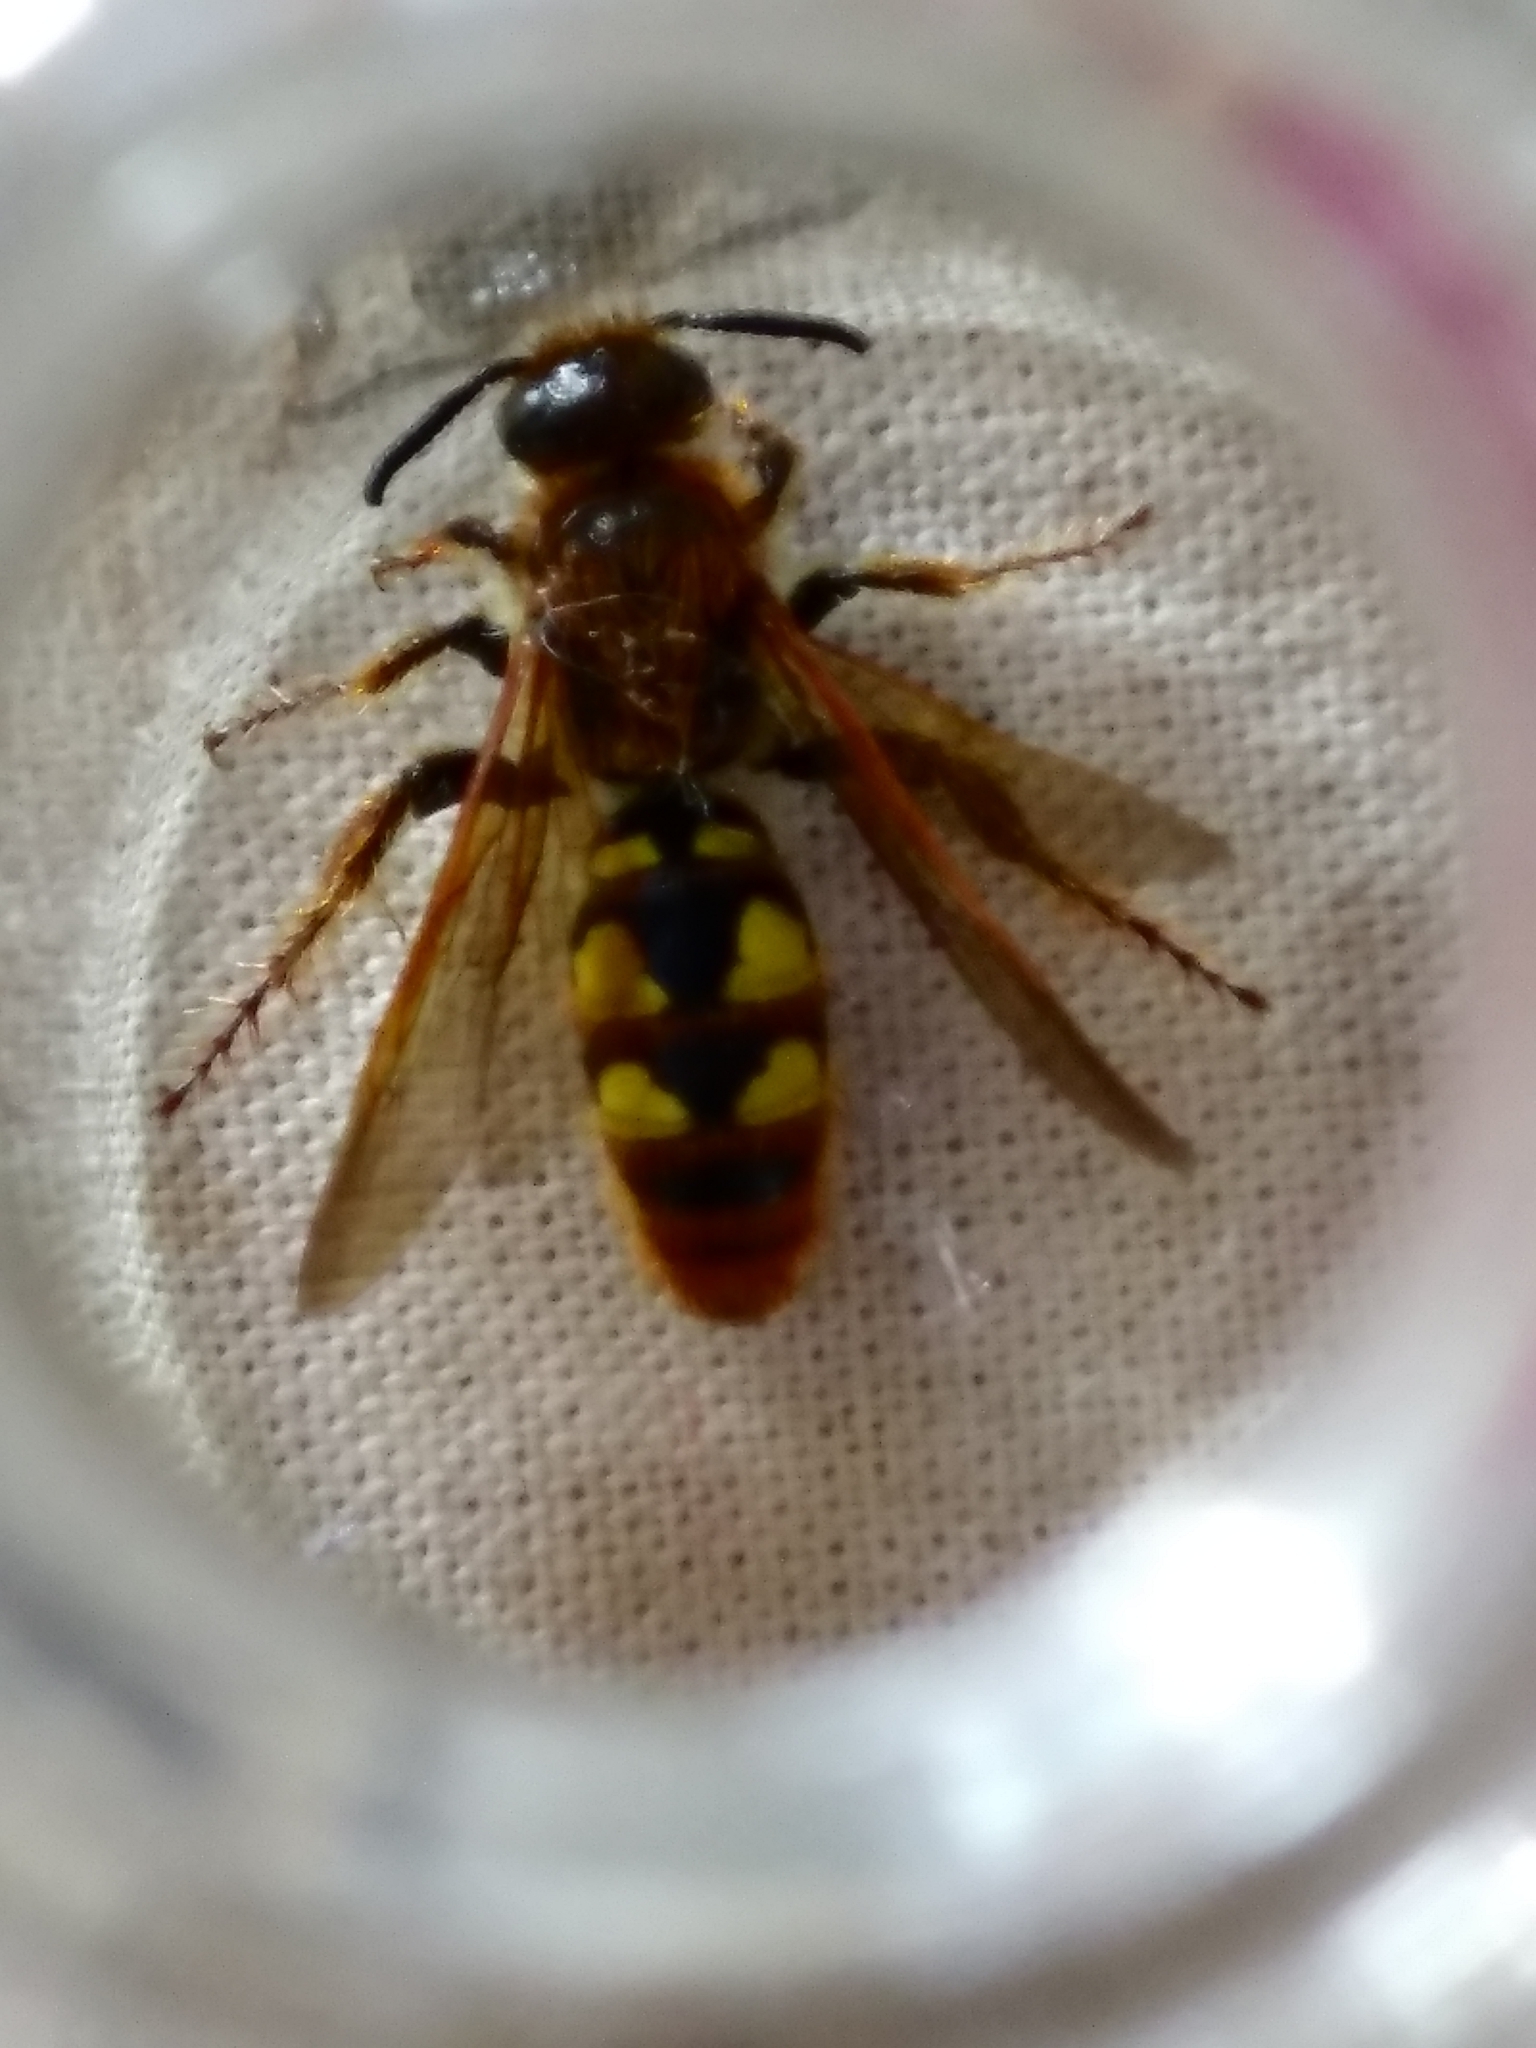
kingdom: Animalia
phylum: Arthropoda
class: Insecta
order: Hymenoptera
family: Scoliidae
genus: Xantocampsomeris
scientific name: Xantocampsomeris limosa
